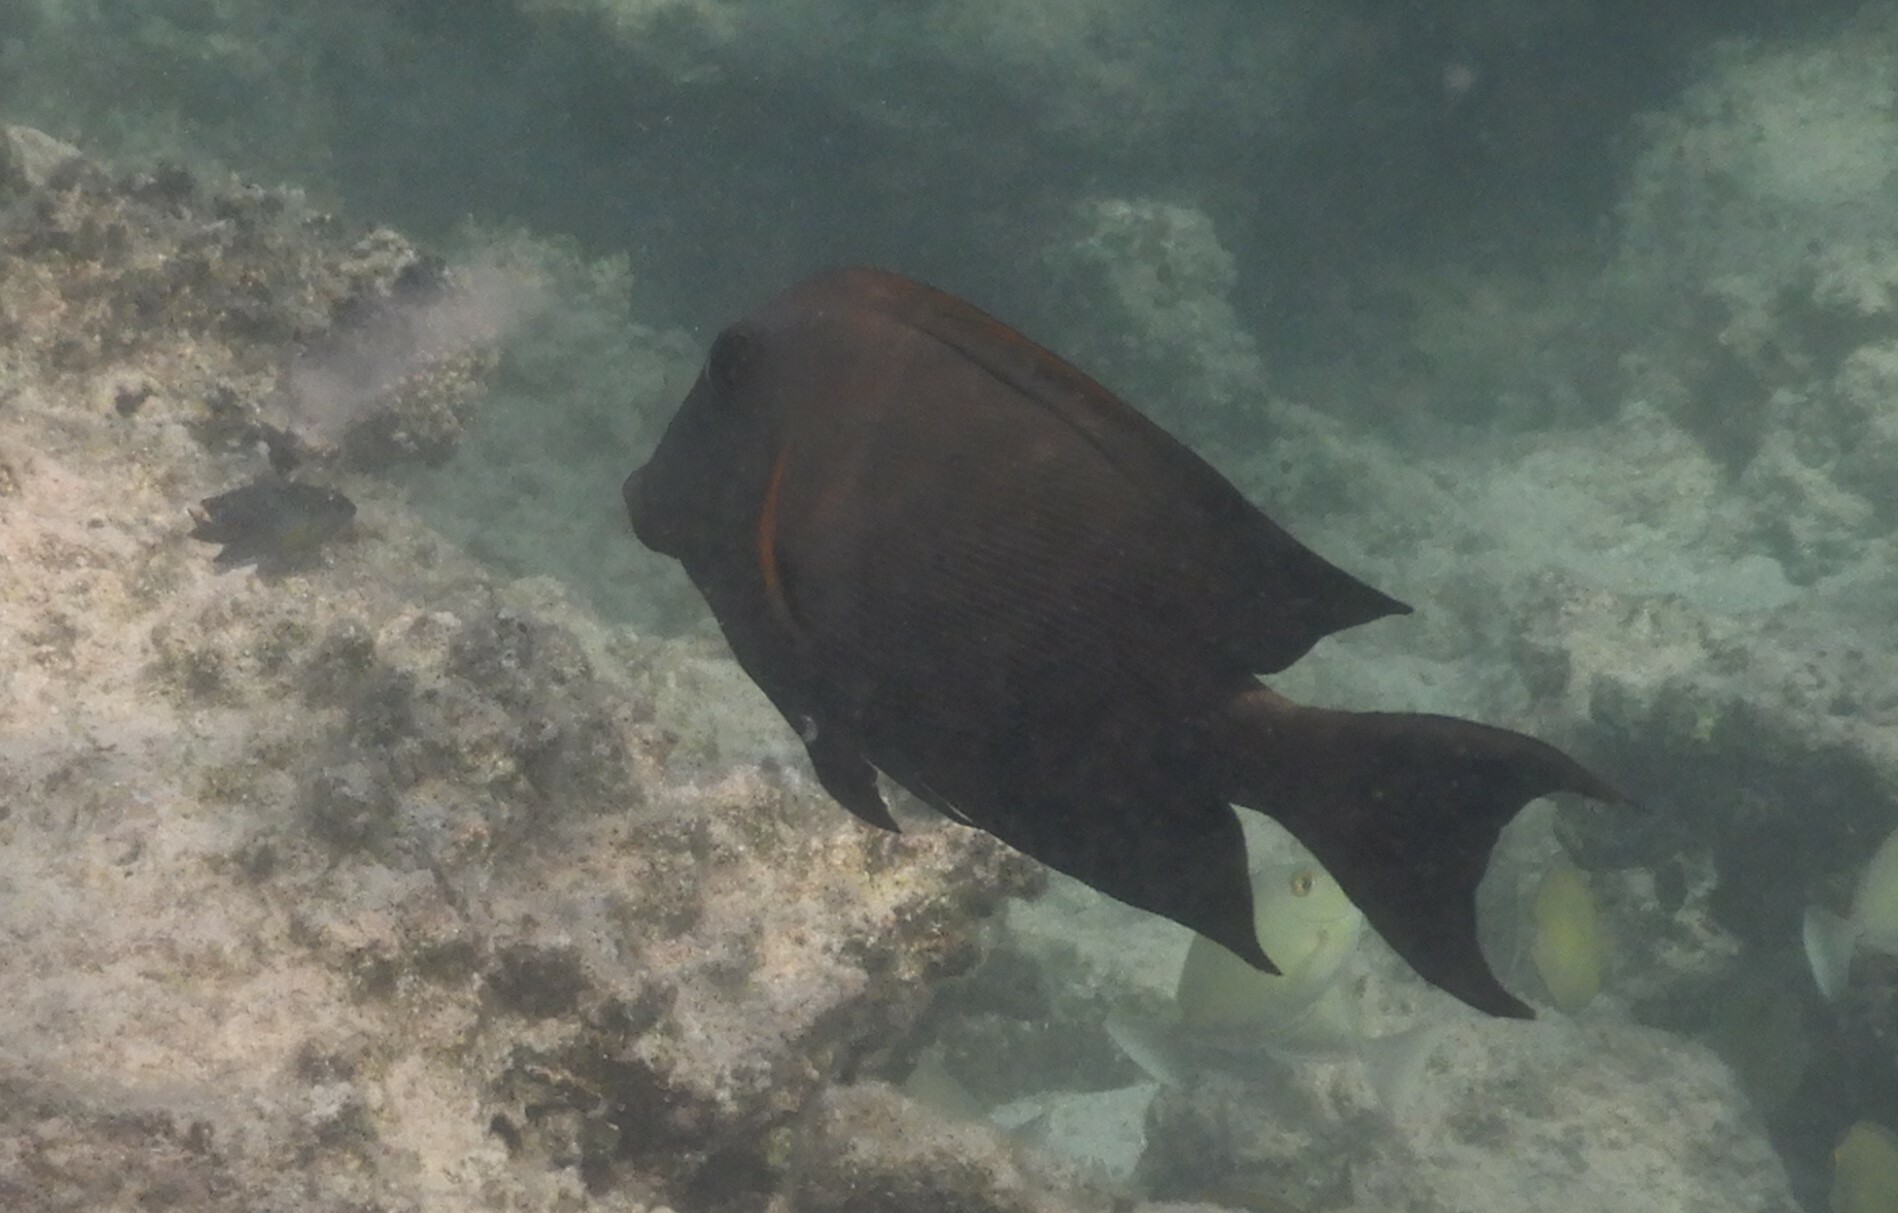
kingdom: Animalia
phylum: Chordata
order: Perciformes
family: Acanthuridae
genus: Ctenochaetus
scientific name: Ctenochaetus striatus
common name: Bristle-toothed surgeonfish
